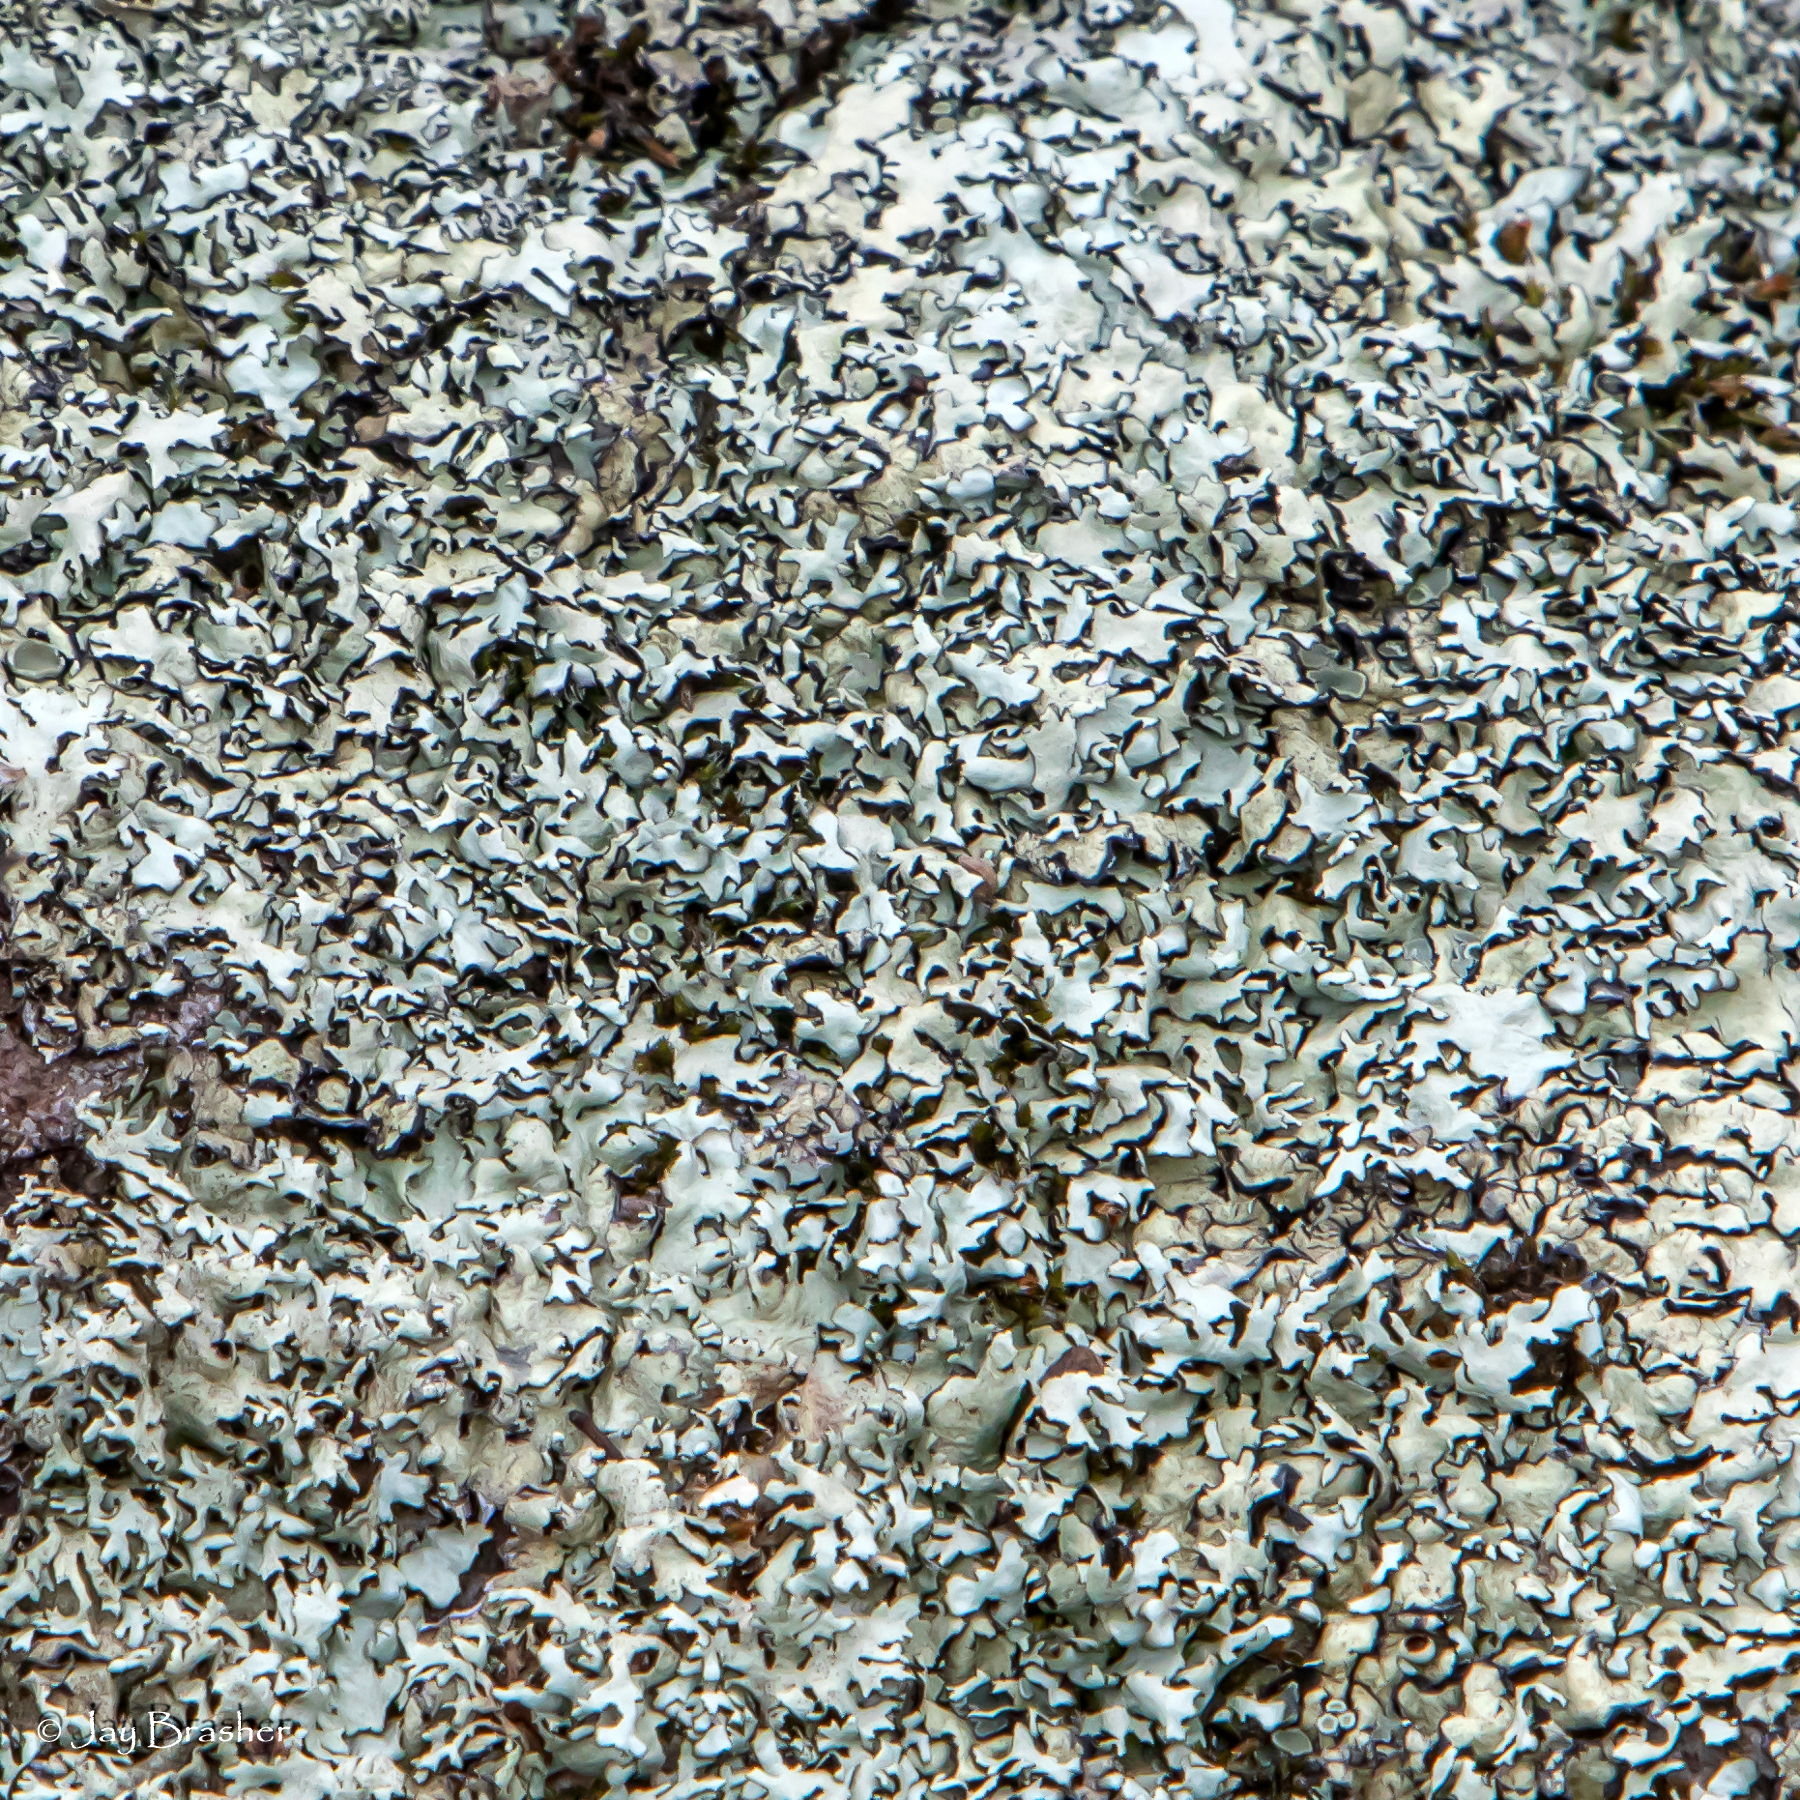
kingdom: Fungi
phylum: Ascomycota
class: Lecanoromycetes
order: Lecanorales
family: Parmeliaceae
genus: Xanthoparmelia
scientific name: Xanthoparmelia viriduloumbrina
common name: Yellowish-green rock-shield lichen
